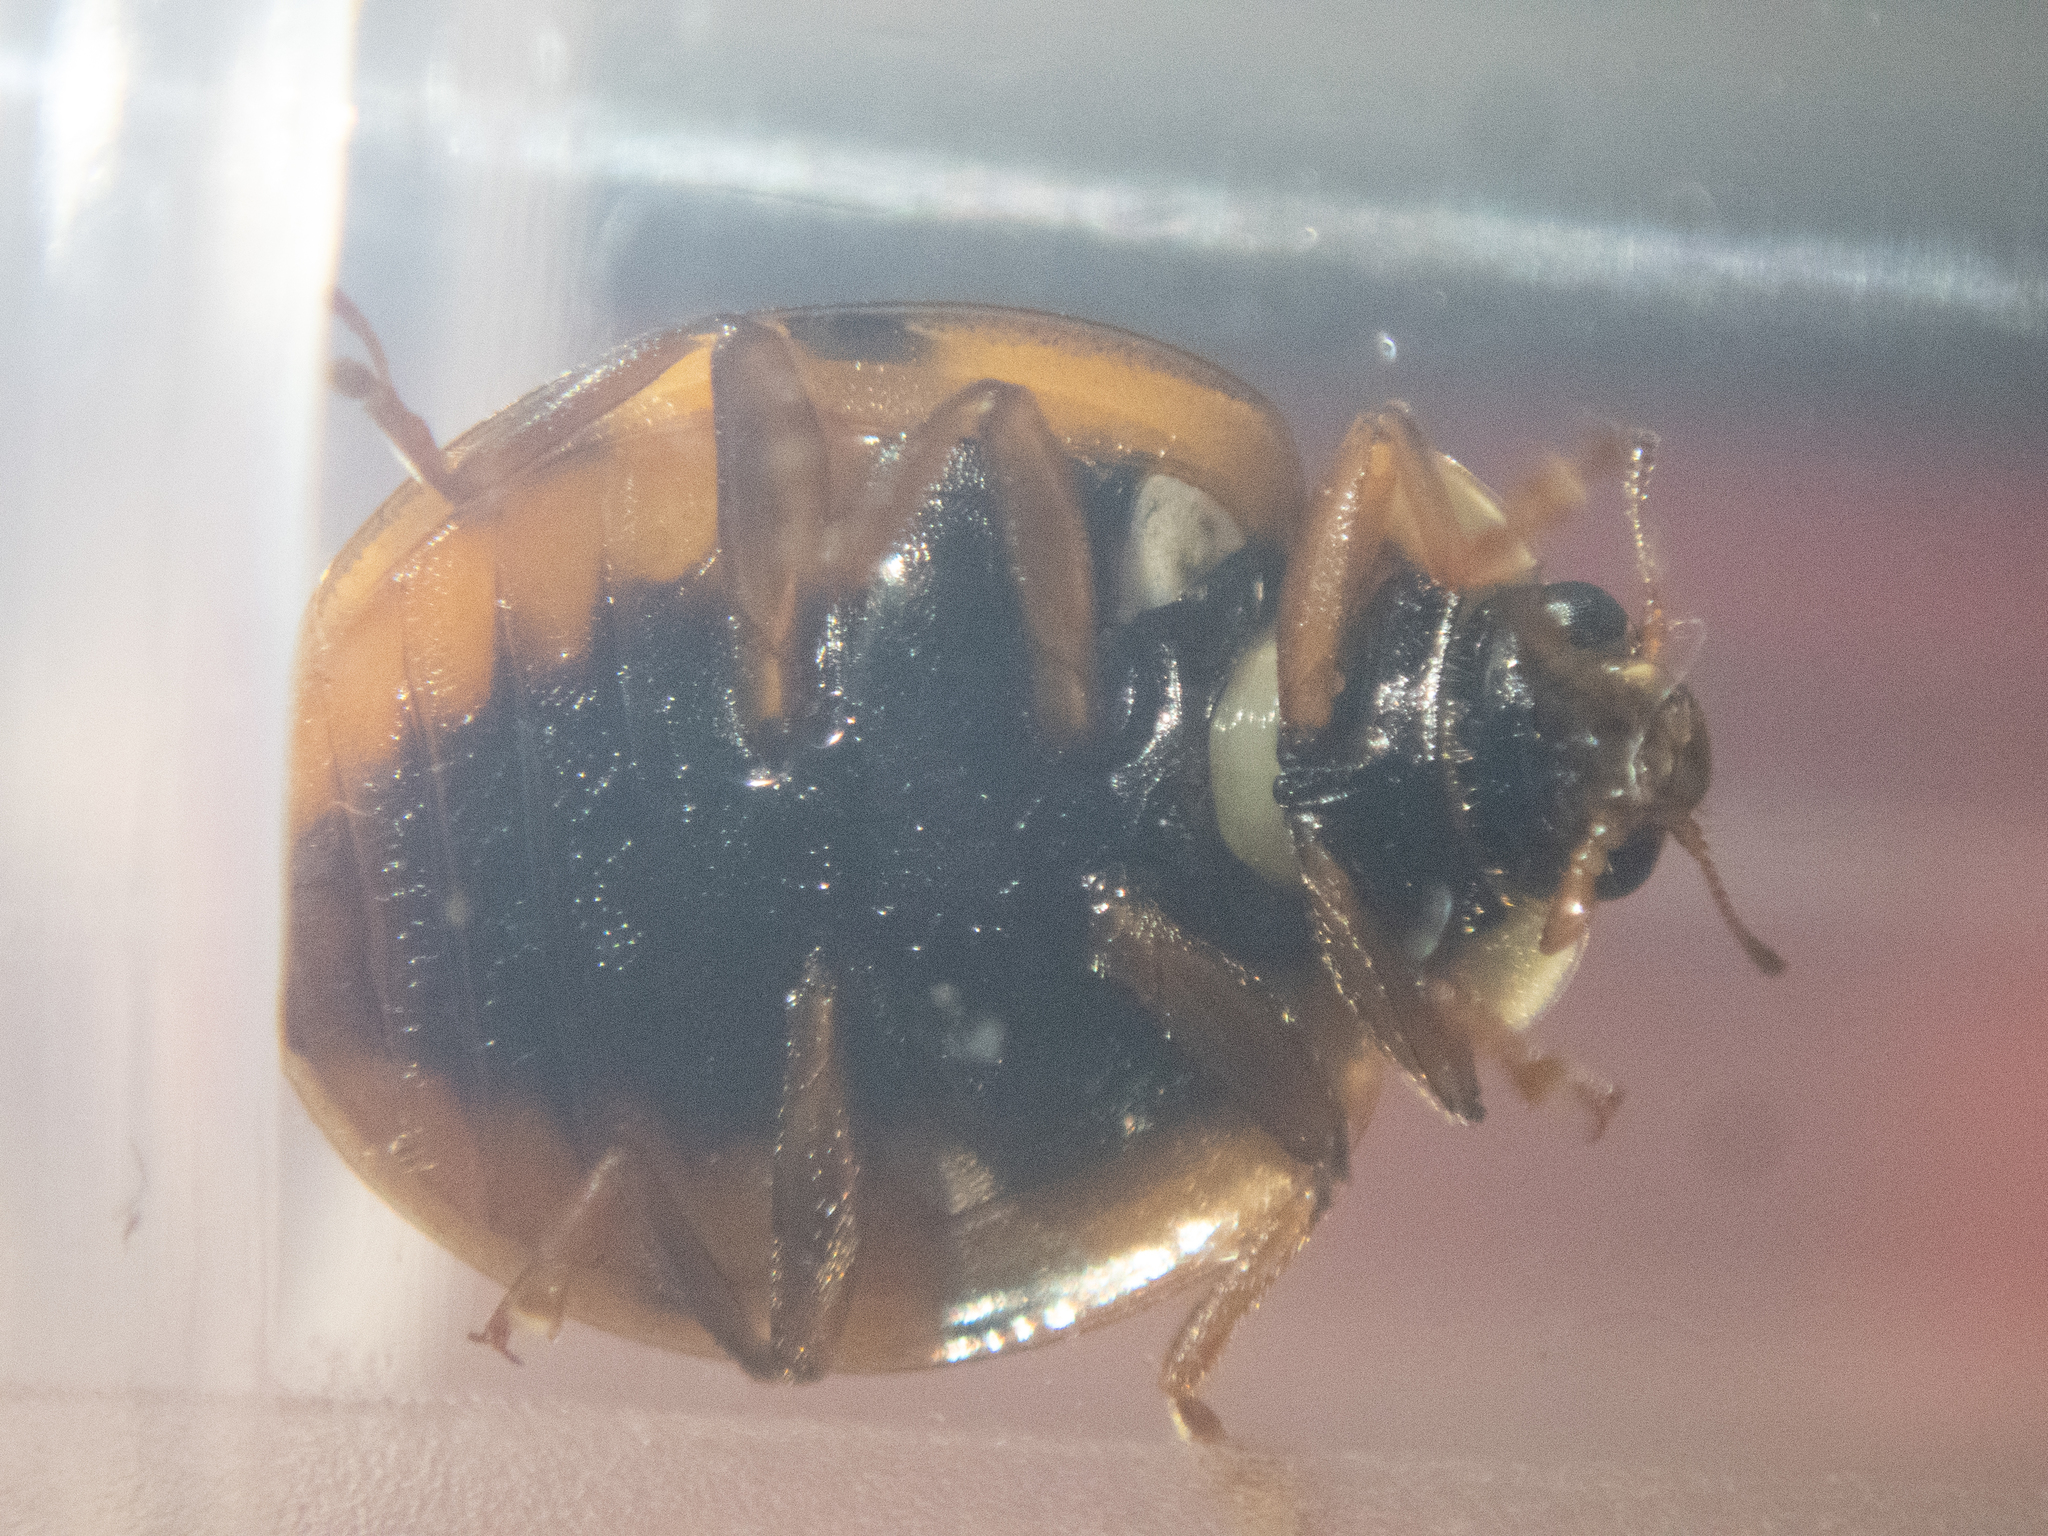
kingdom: Animalia
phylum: Arthropoda
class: Insecta
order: Coleoptera
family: Coccinellidae
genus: Harmonia
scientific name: Harmonia axyridis
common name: Harlequin ladybird
